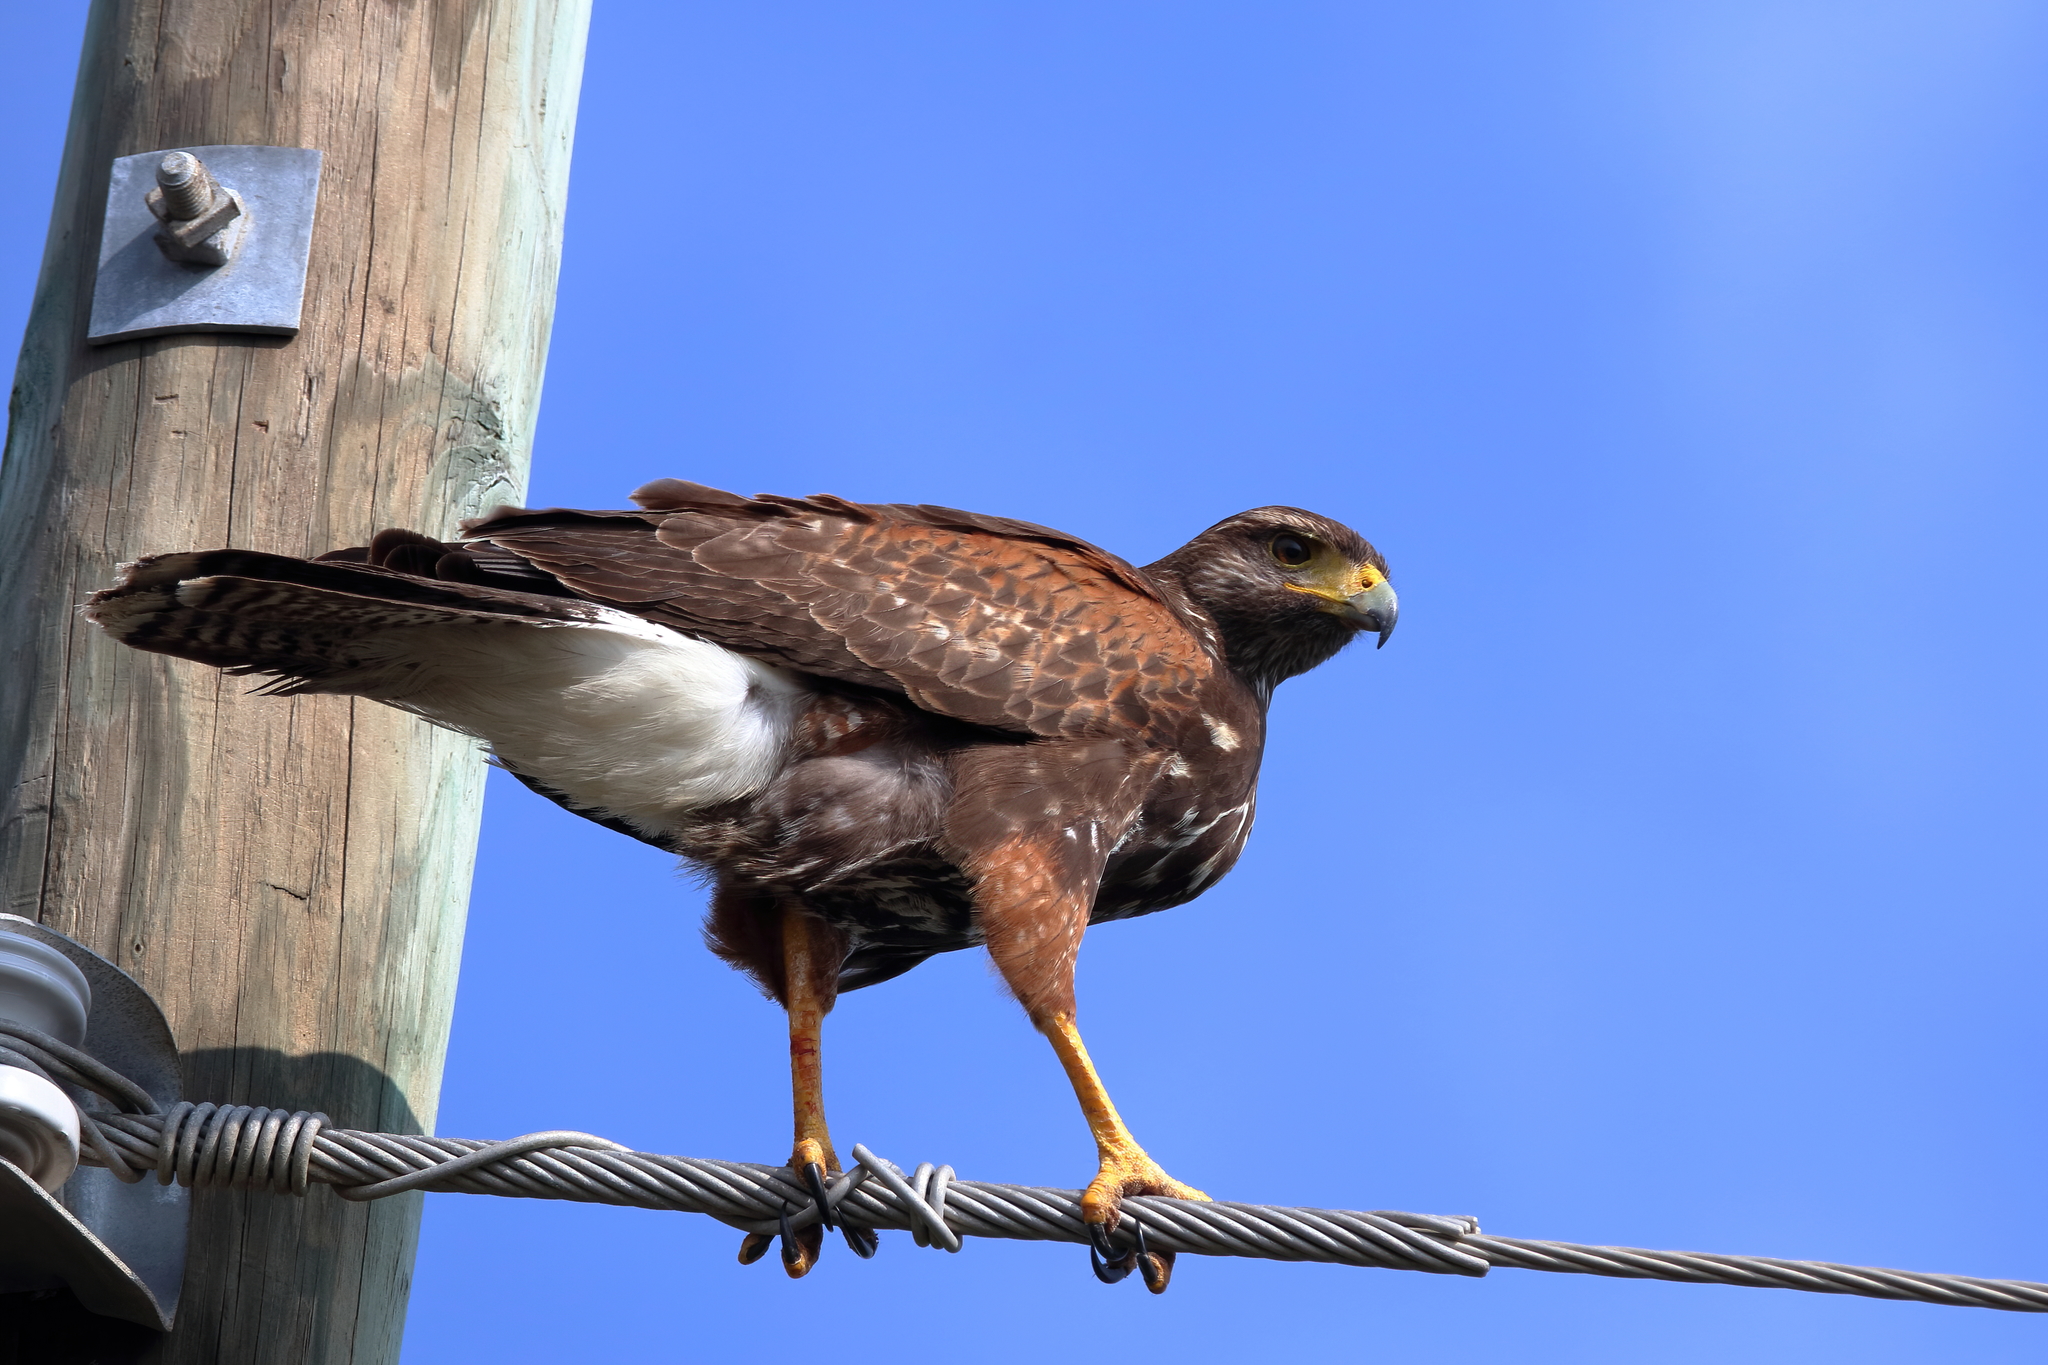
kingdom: Animalia
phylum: Chordata
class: Aves
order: Accipitriformes
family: Accipitridae
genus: Parabuteo
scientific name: Parabuteo unicinctus
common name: Harris's hawk
